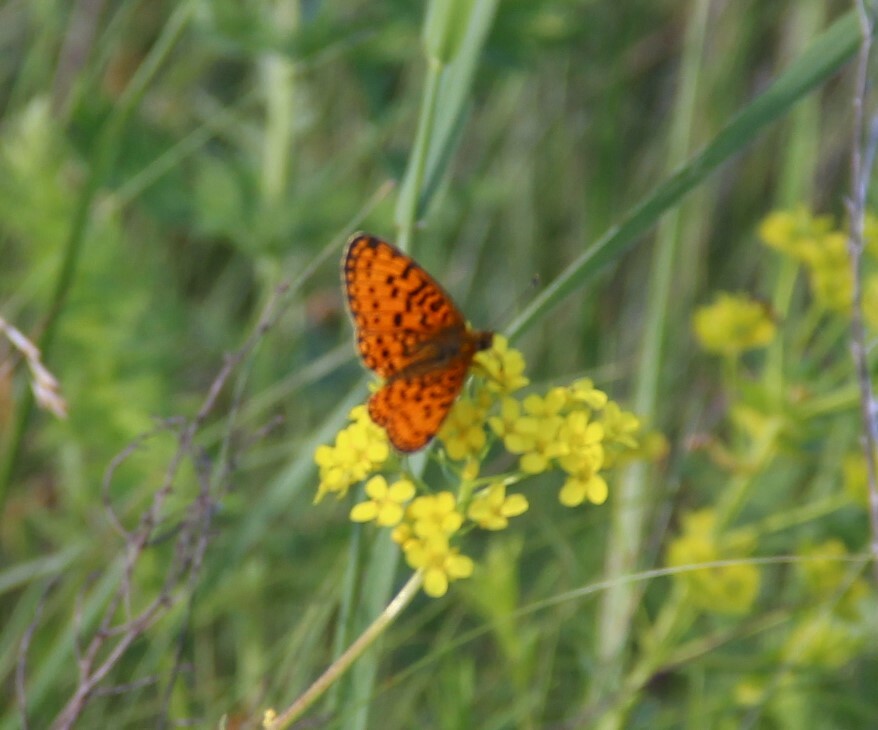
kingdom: Animalia
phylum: Arthropoda
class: Insecta
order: Lepidoptera
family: Nymphalidae
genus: Boloria
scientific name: Boloria selene
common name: Small pearl-bordered fritillary
